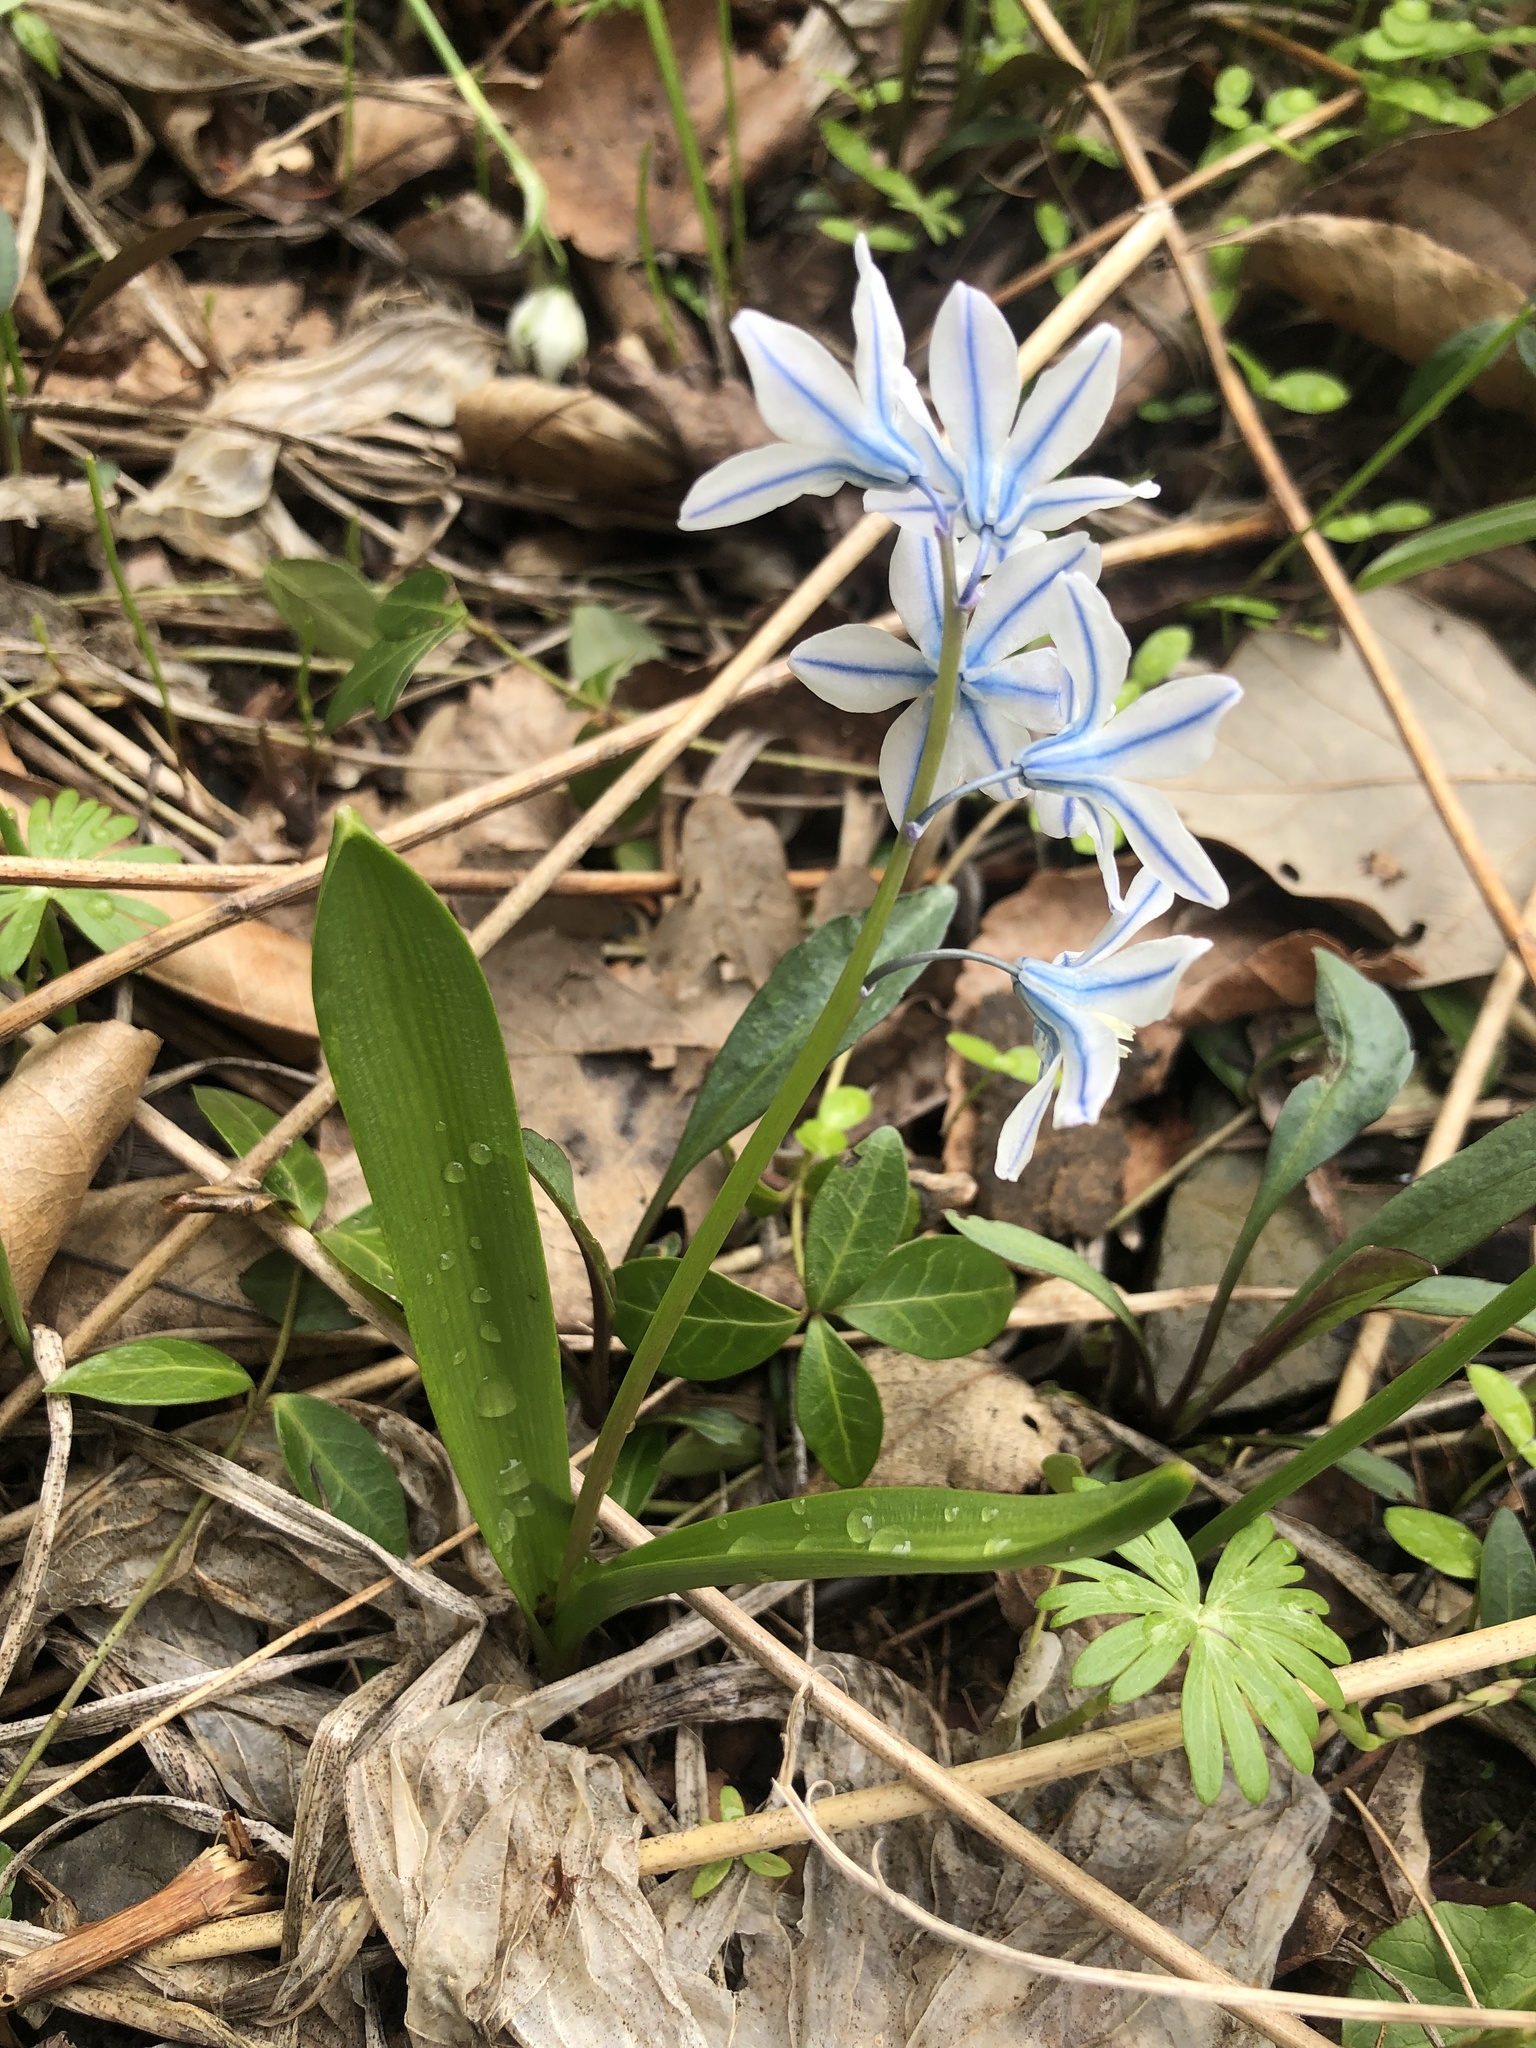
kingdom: Plantae
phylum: Tracheophyta
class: Liliopsida
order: Asparagales
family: Asparagaceae
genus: Puschkinia
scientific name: Puschkinia scilloides
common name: Striped squill
